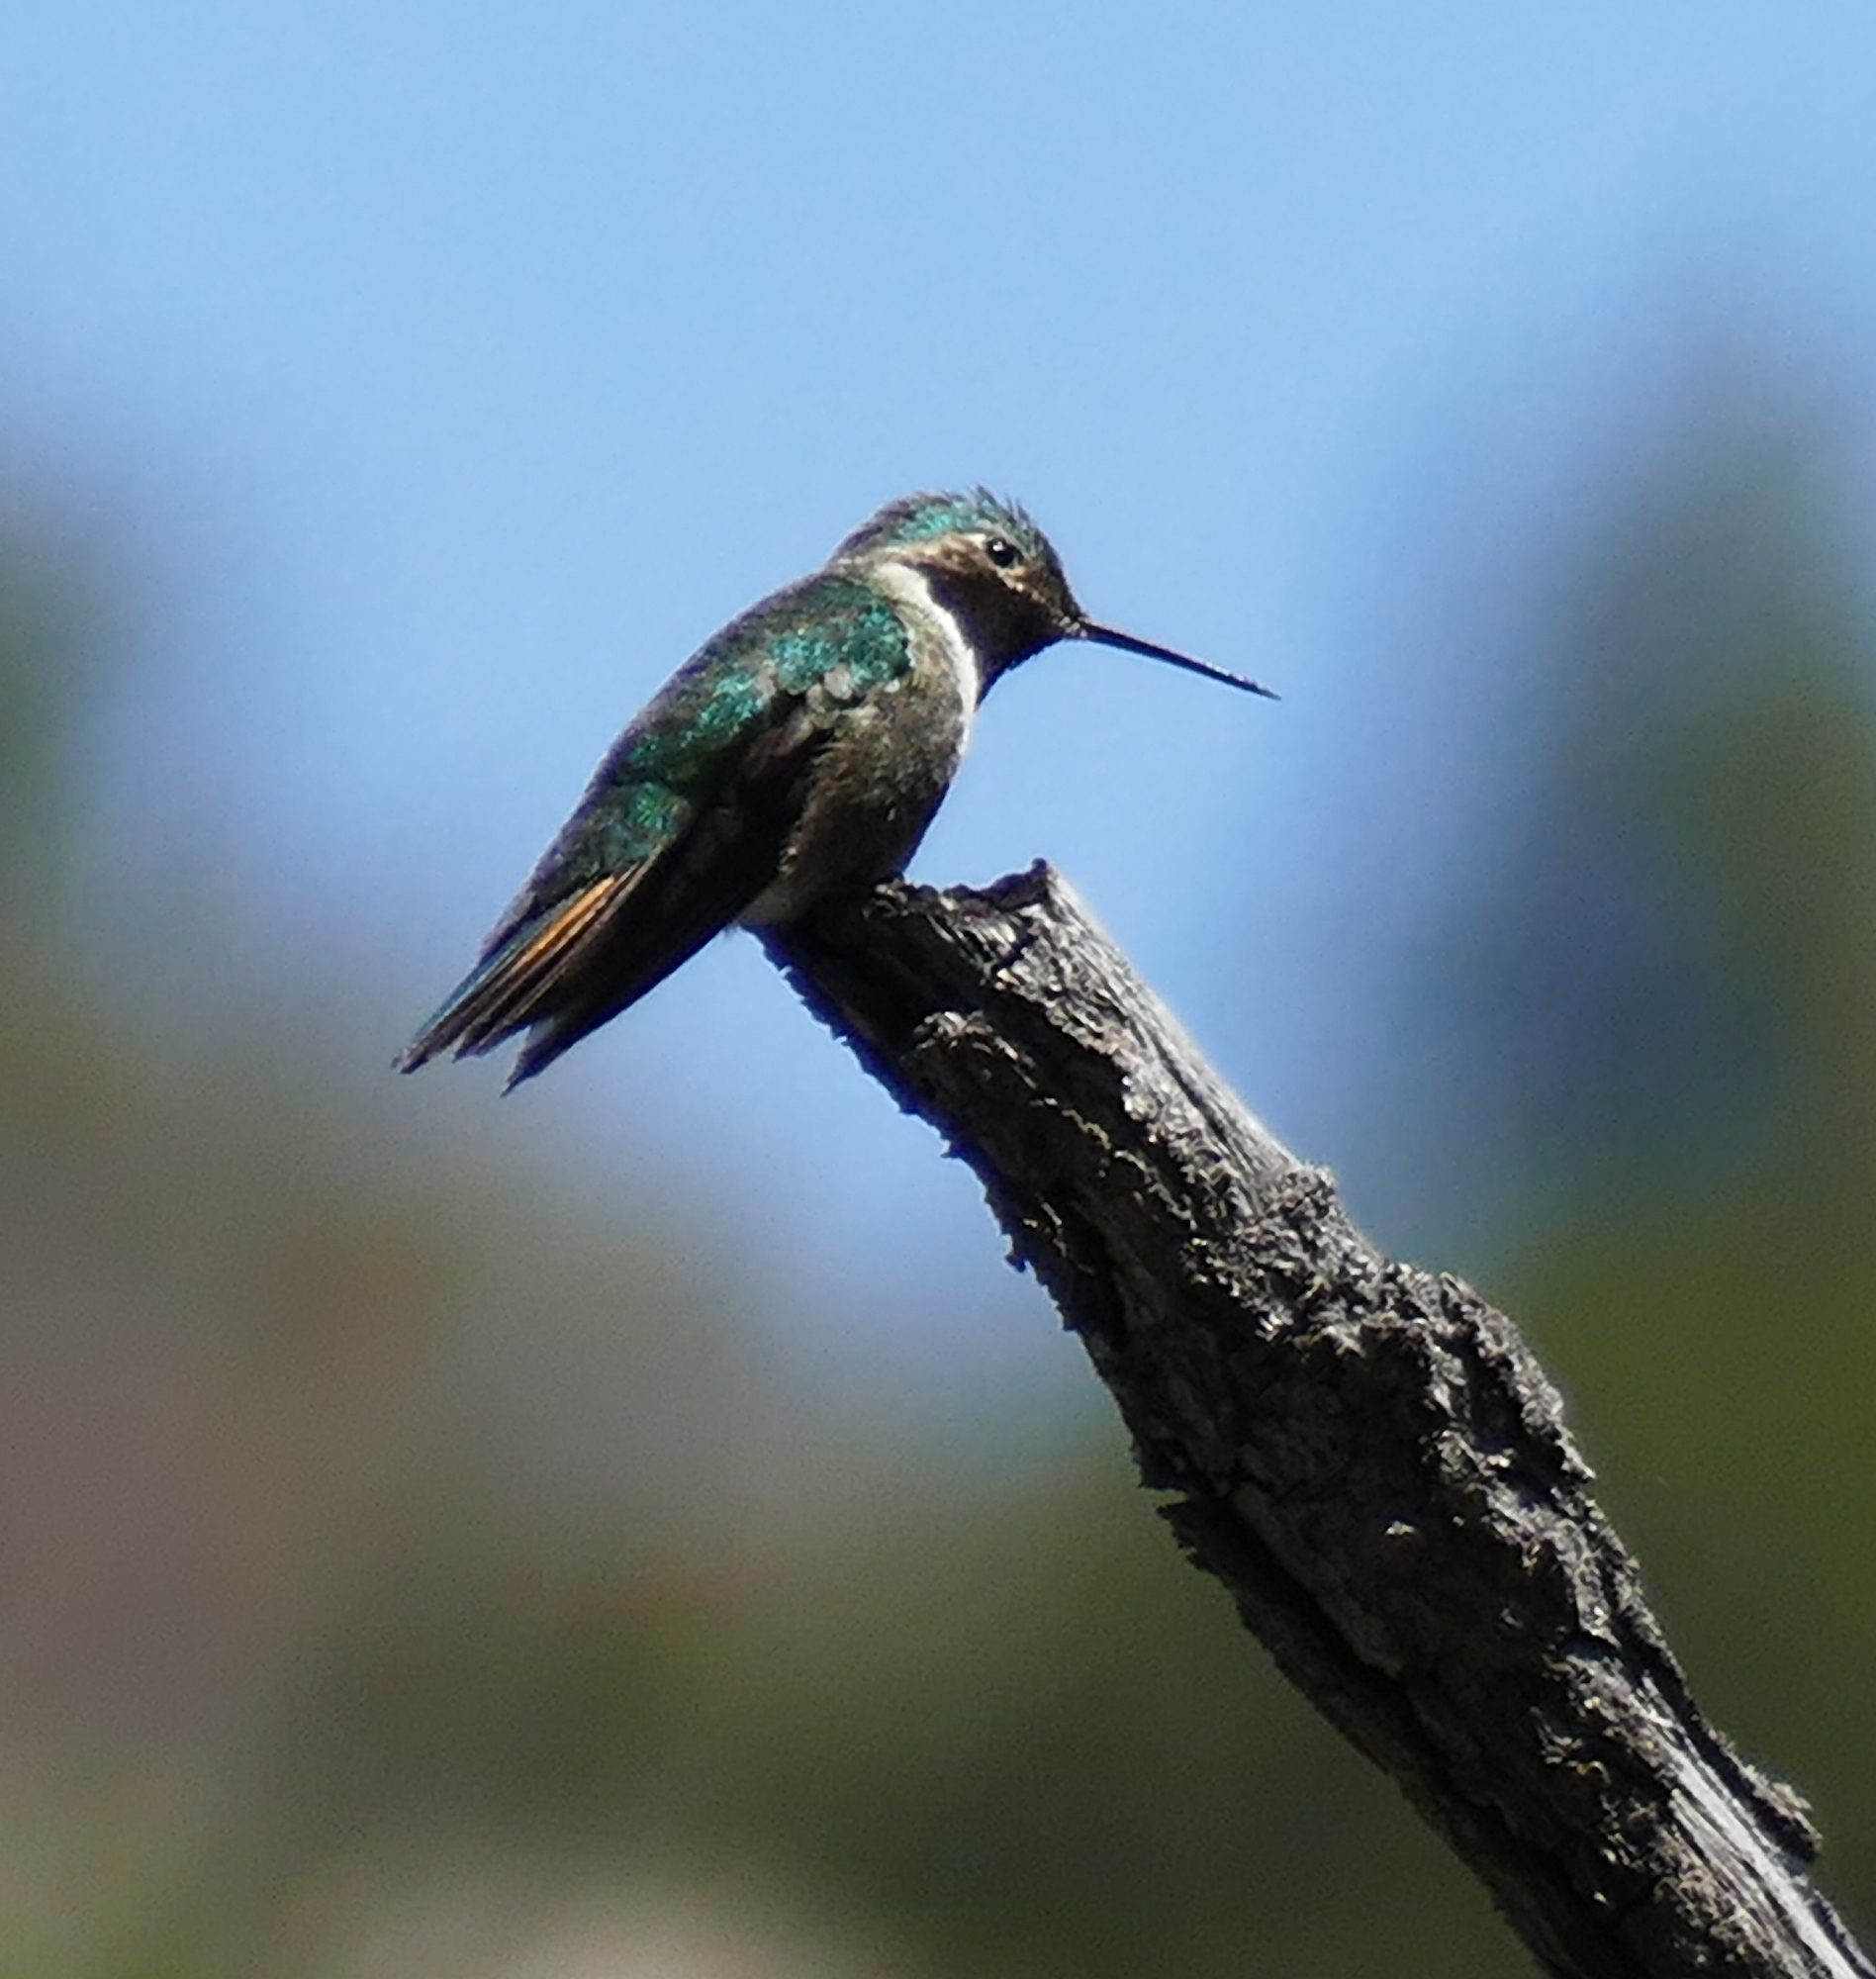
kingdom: Animalia
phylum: Chordata
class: Aves
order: Apodiformes
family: Trochilidae
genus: Selasphorus
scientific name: Selasphorus platycercus
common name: Broad-tailed hummingbird
